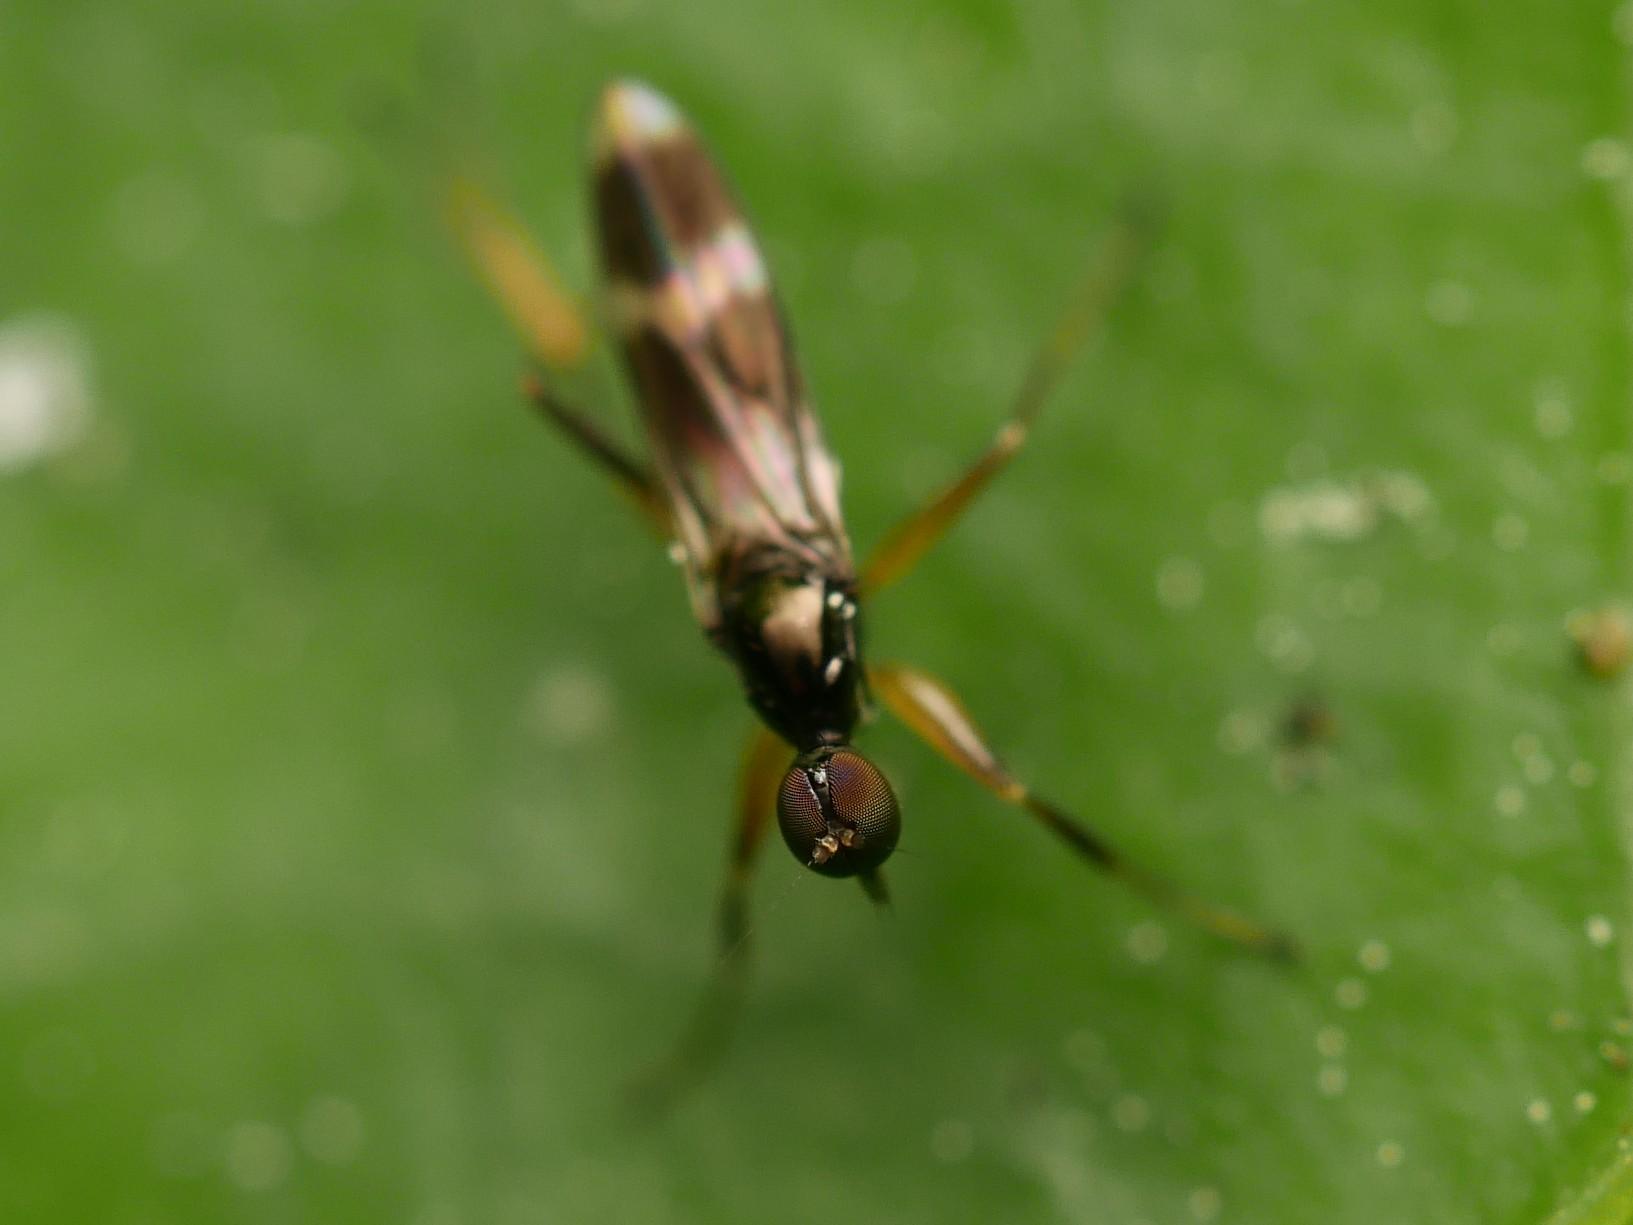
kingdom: Animalia
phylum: Arthropoda
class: Insecta
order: Diptera
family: Hybotidae
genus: Tachydromia
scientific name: Tachydromia arrogans
